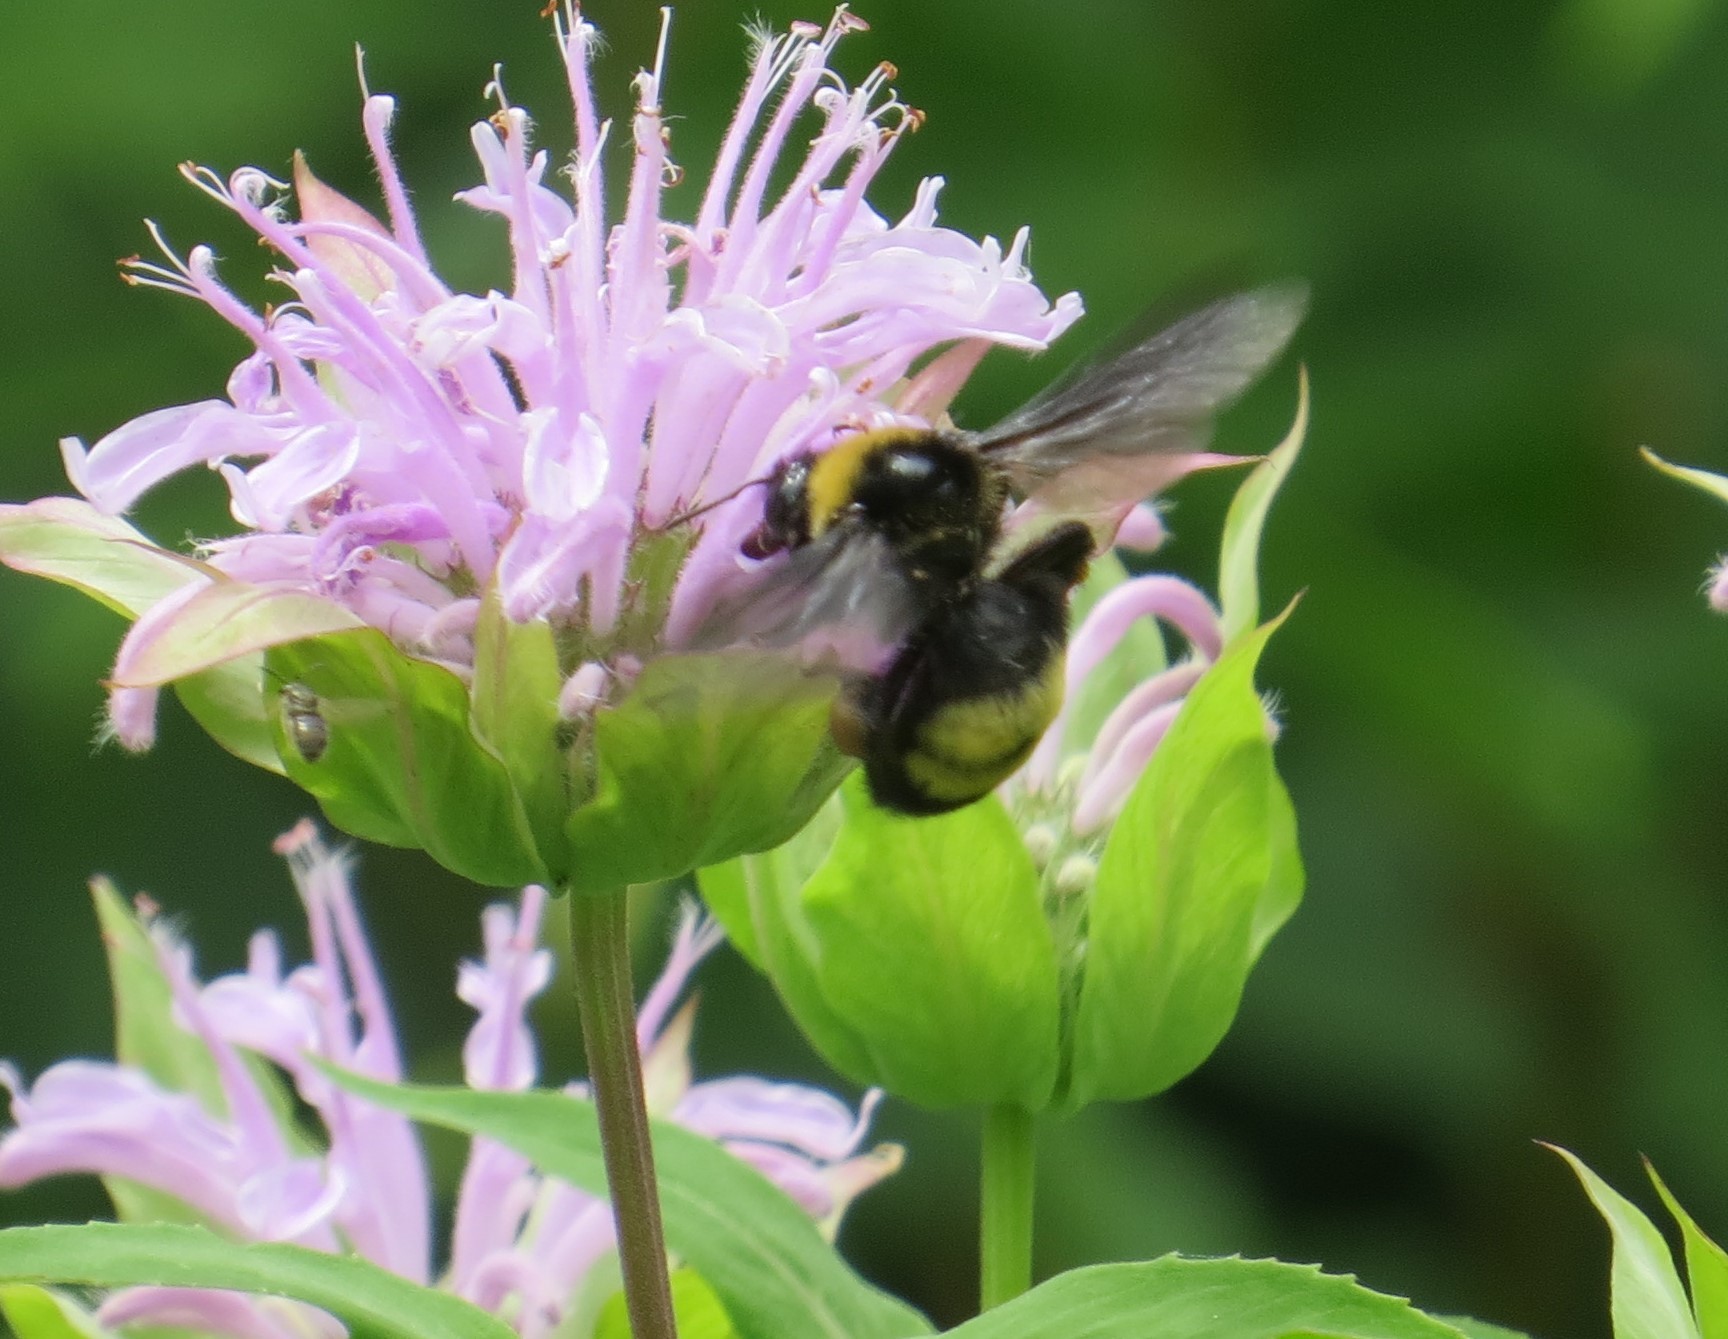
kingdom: Animalia
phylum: Arthropoda
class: Insecta
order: Hymenoptera
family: Apidae
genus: Bombus
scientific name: Bombus auricomus
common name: Black and gold bumble bee
